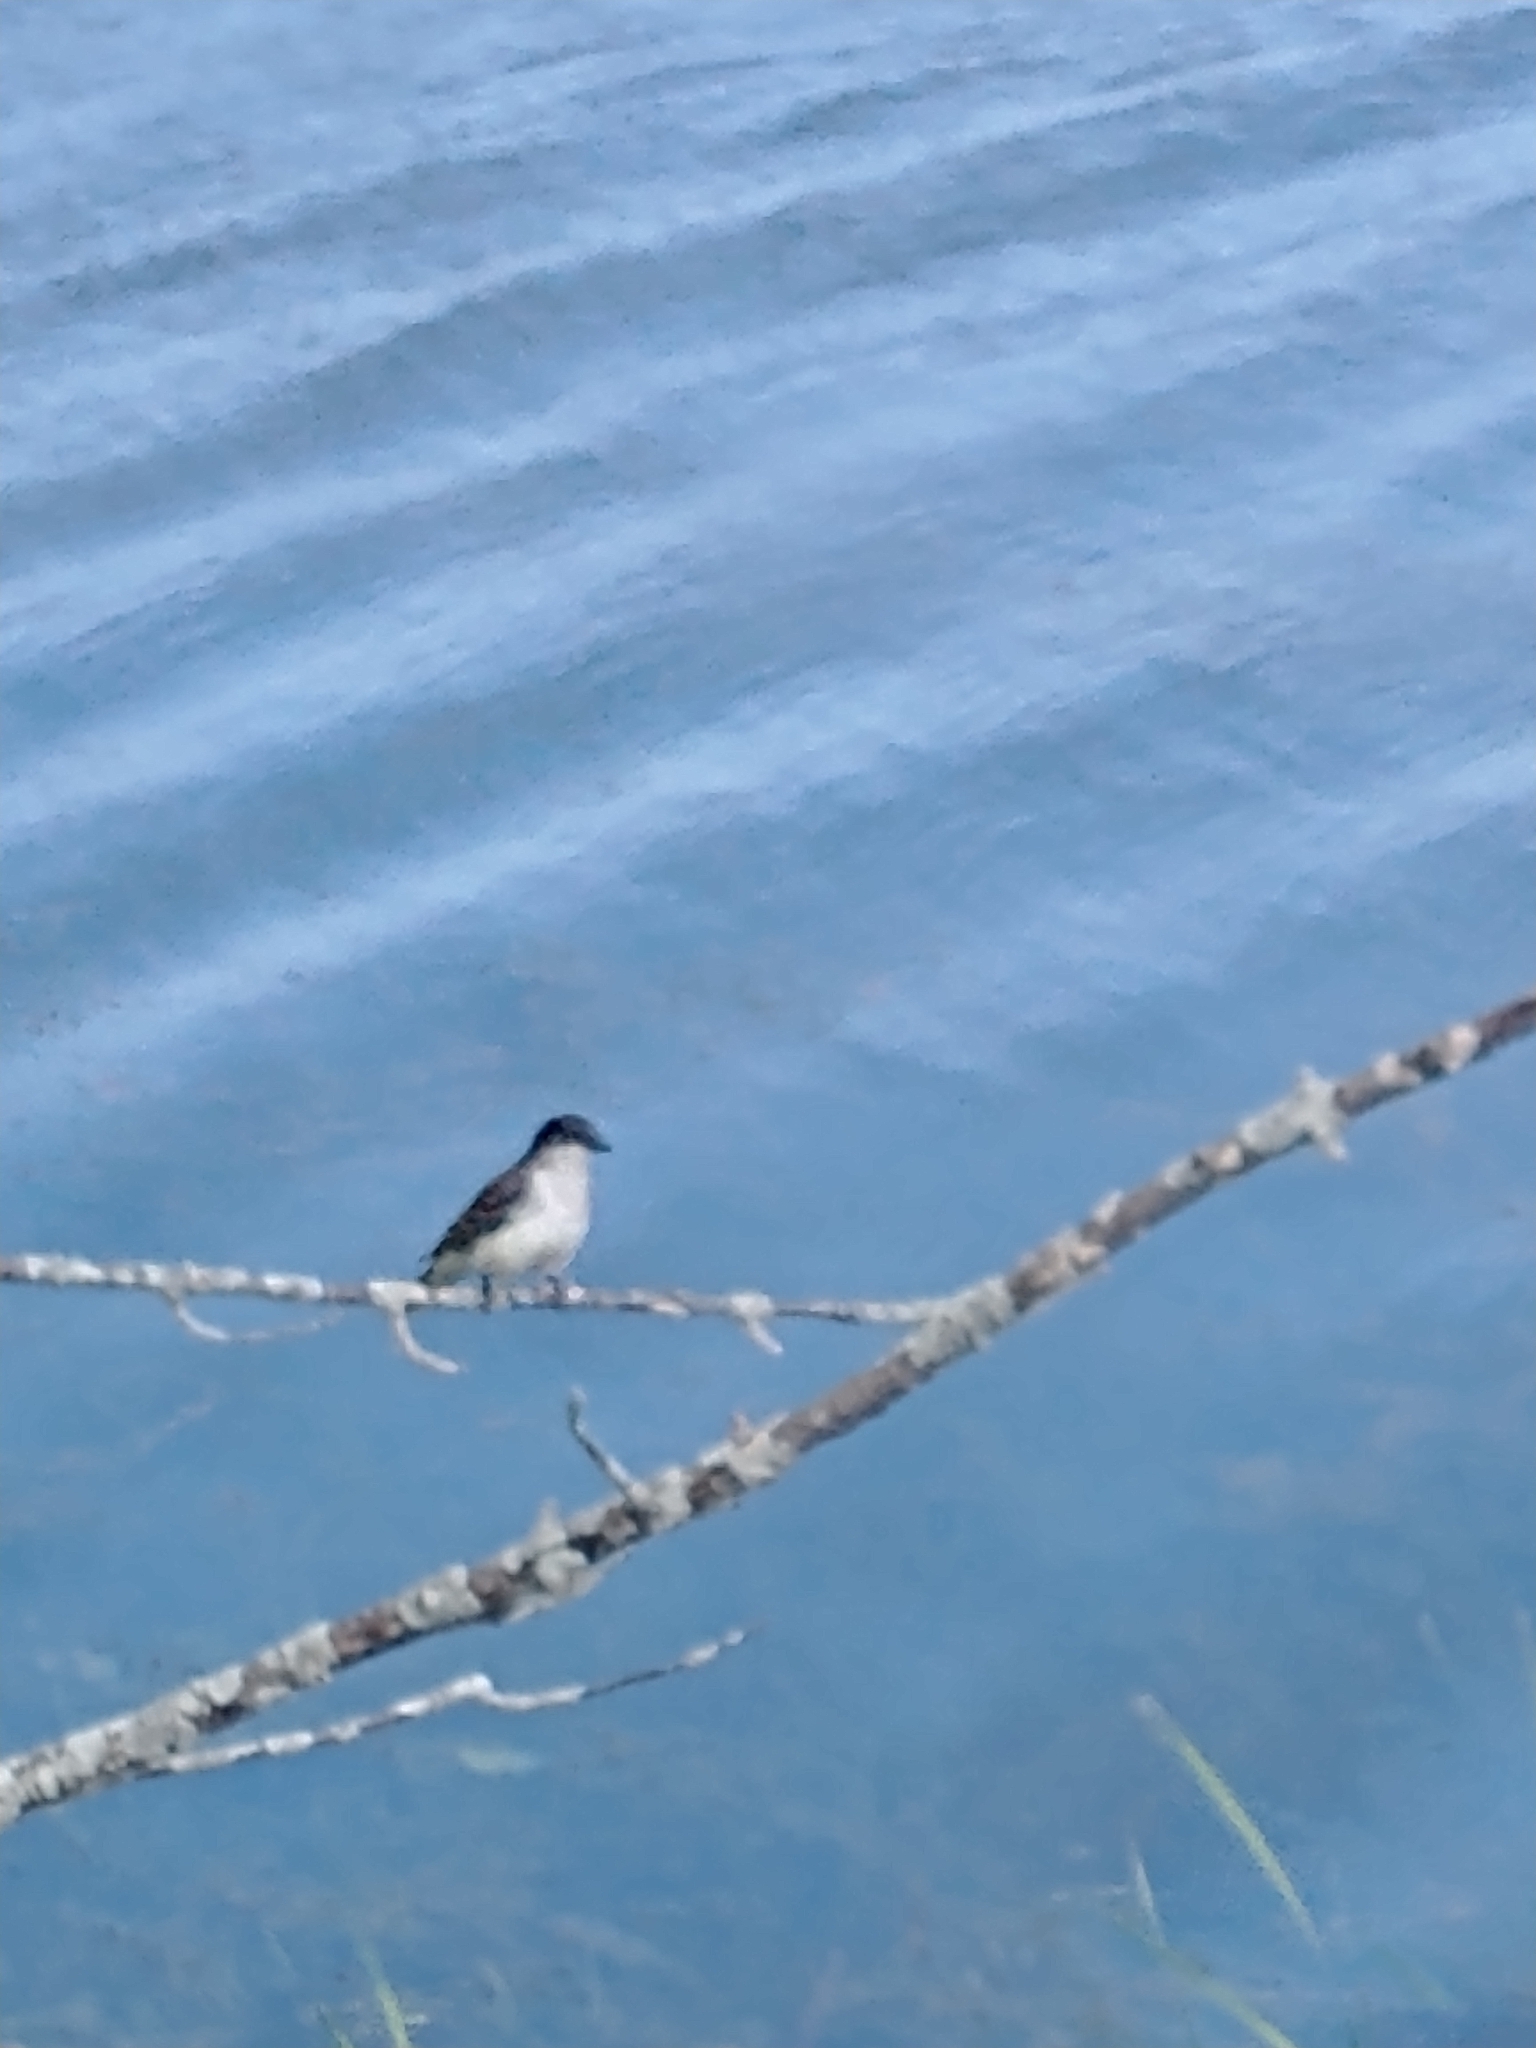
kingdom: Animalia
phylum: Chordata
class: Aves
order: Passeriformes
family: Tyrannidae
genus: Tyrannus
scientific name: Tyrannus tyrannus
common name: Eastern kingbird
